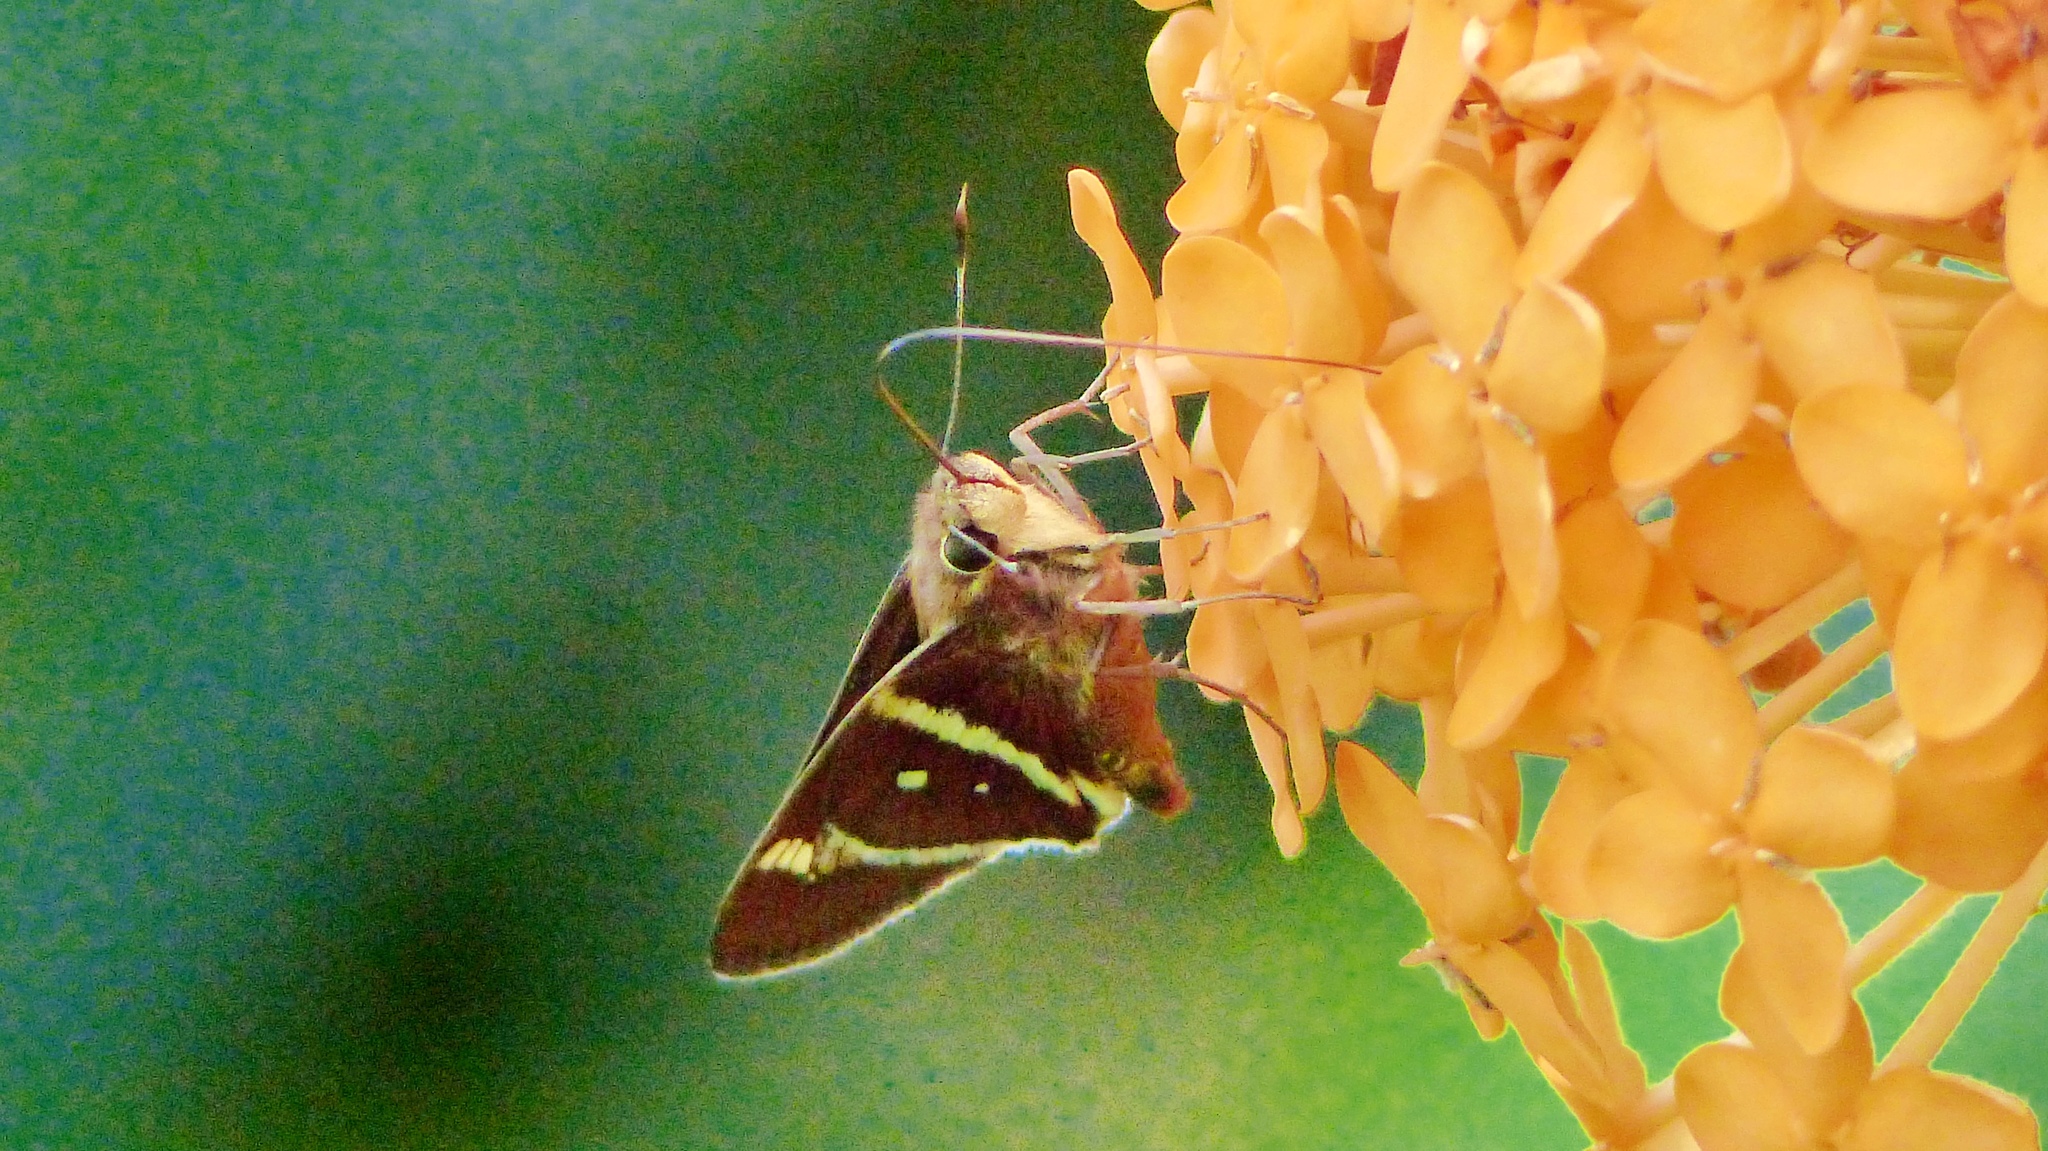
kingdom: Animalia
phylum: Arthropoda
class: Insecta
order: Lepidoptera
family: Hesperiidae
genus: Xeniades
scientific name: Xeniades chalestra
